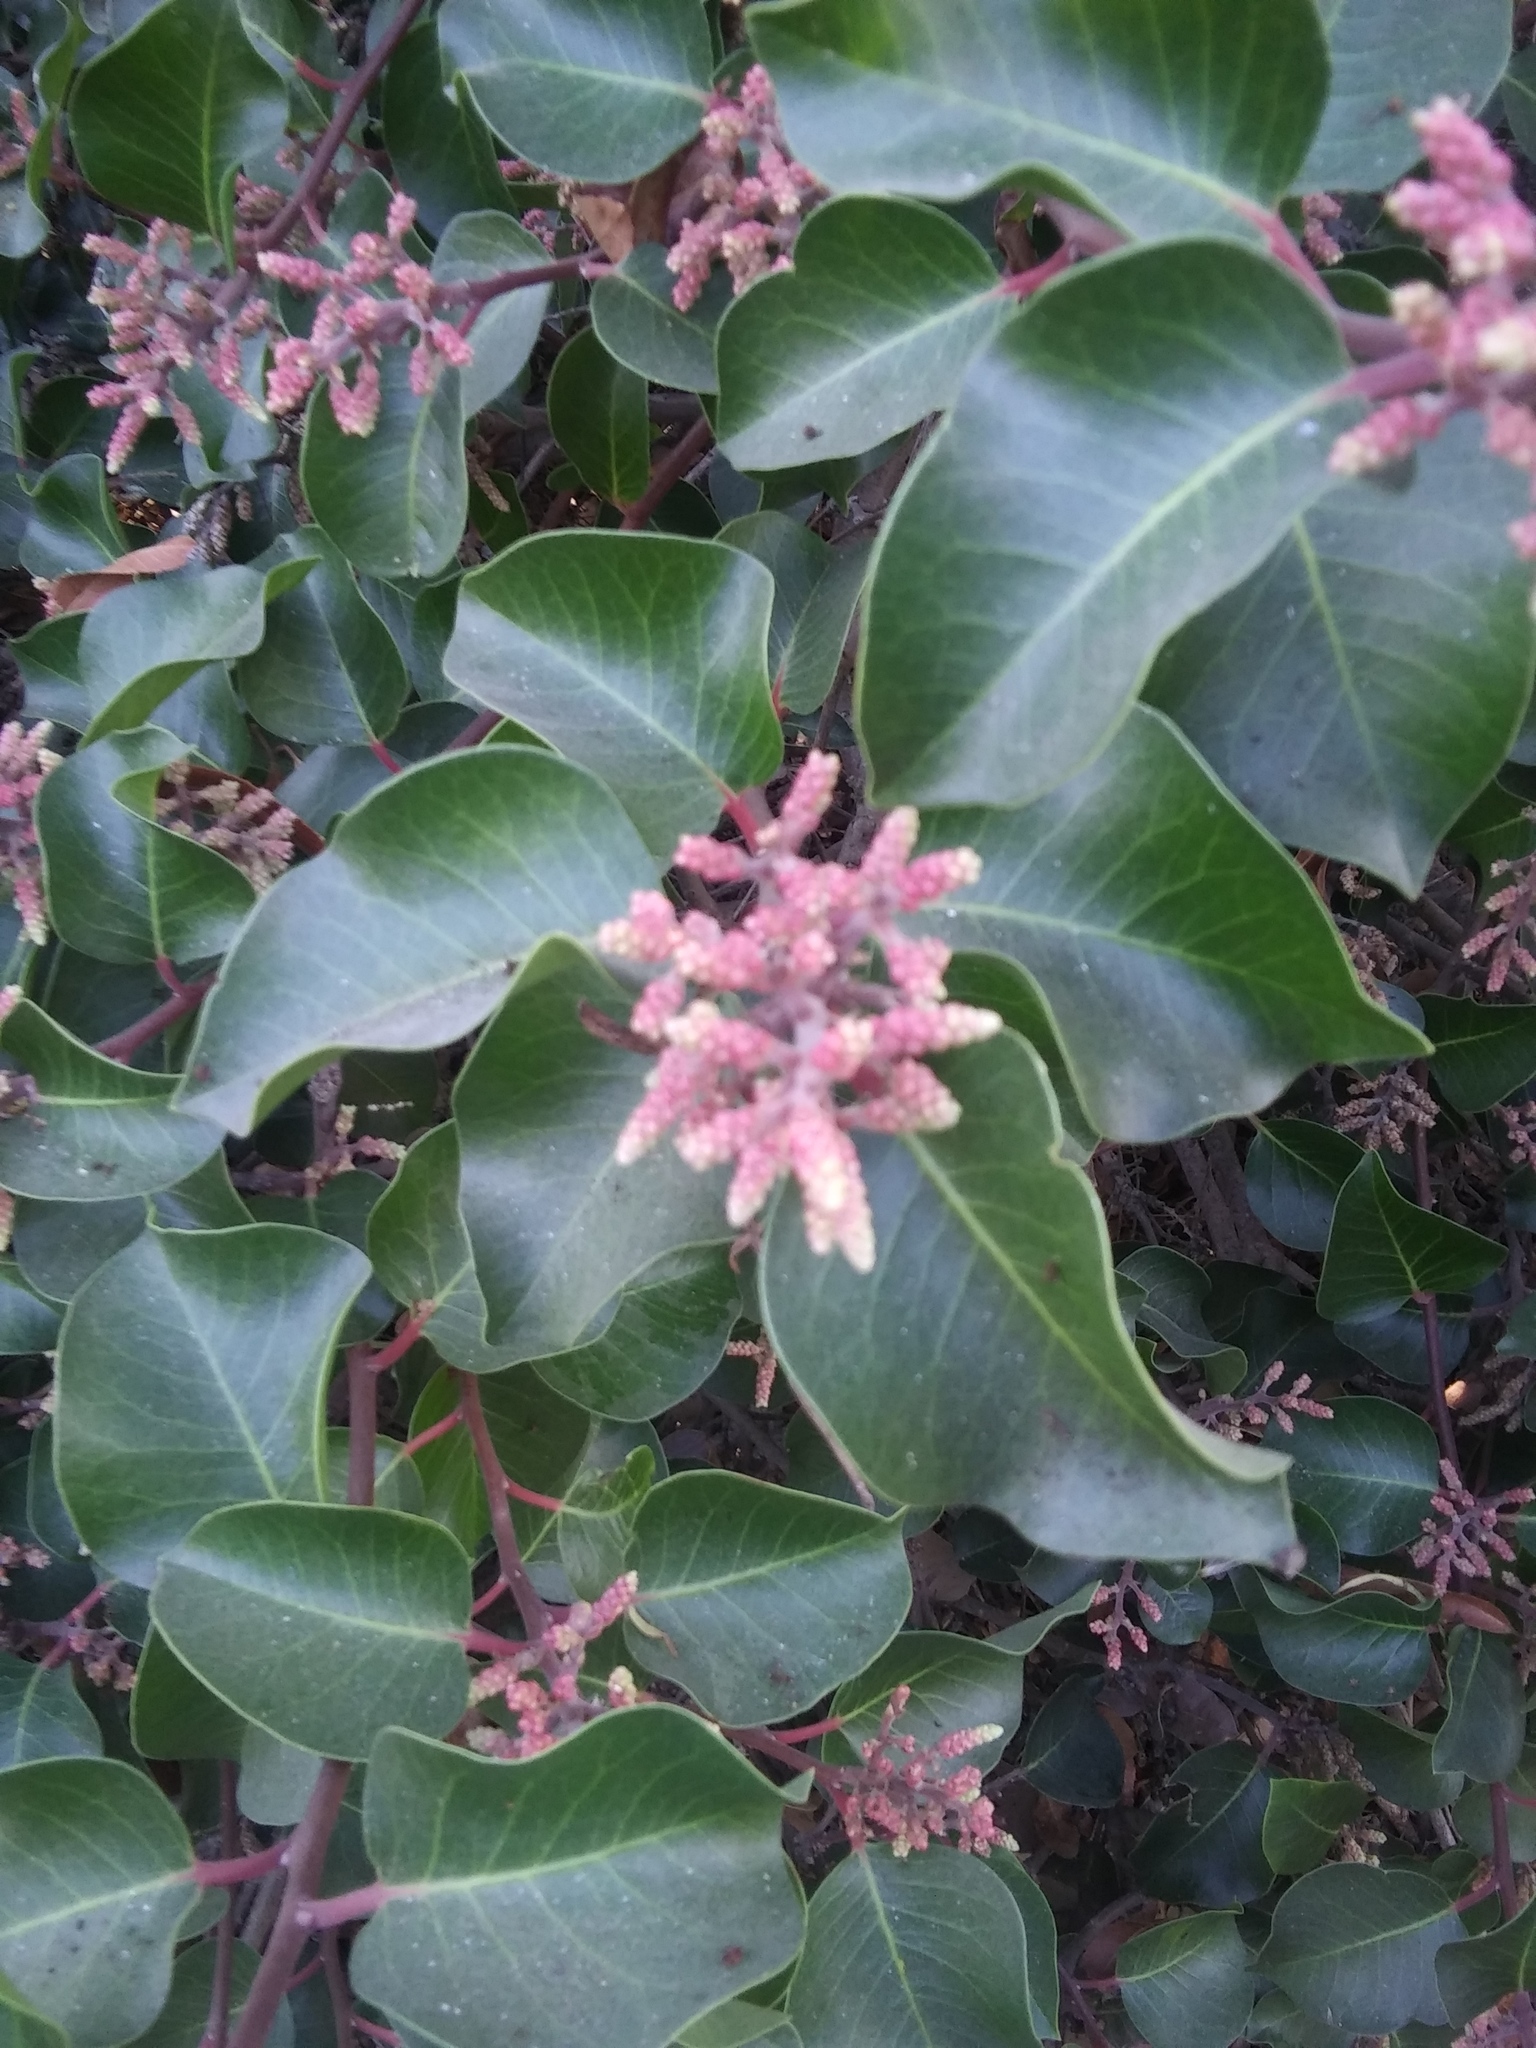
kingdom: Plantae
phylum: Tracheophyta
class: Magnoliopsida
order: Sapindales
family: Anacardiaceae
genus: Rhus
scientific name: Rhus ovata
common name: Sugar sumac
